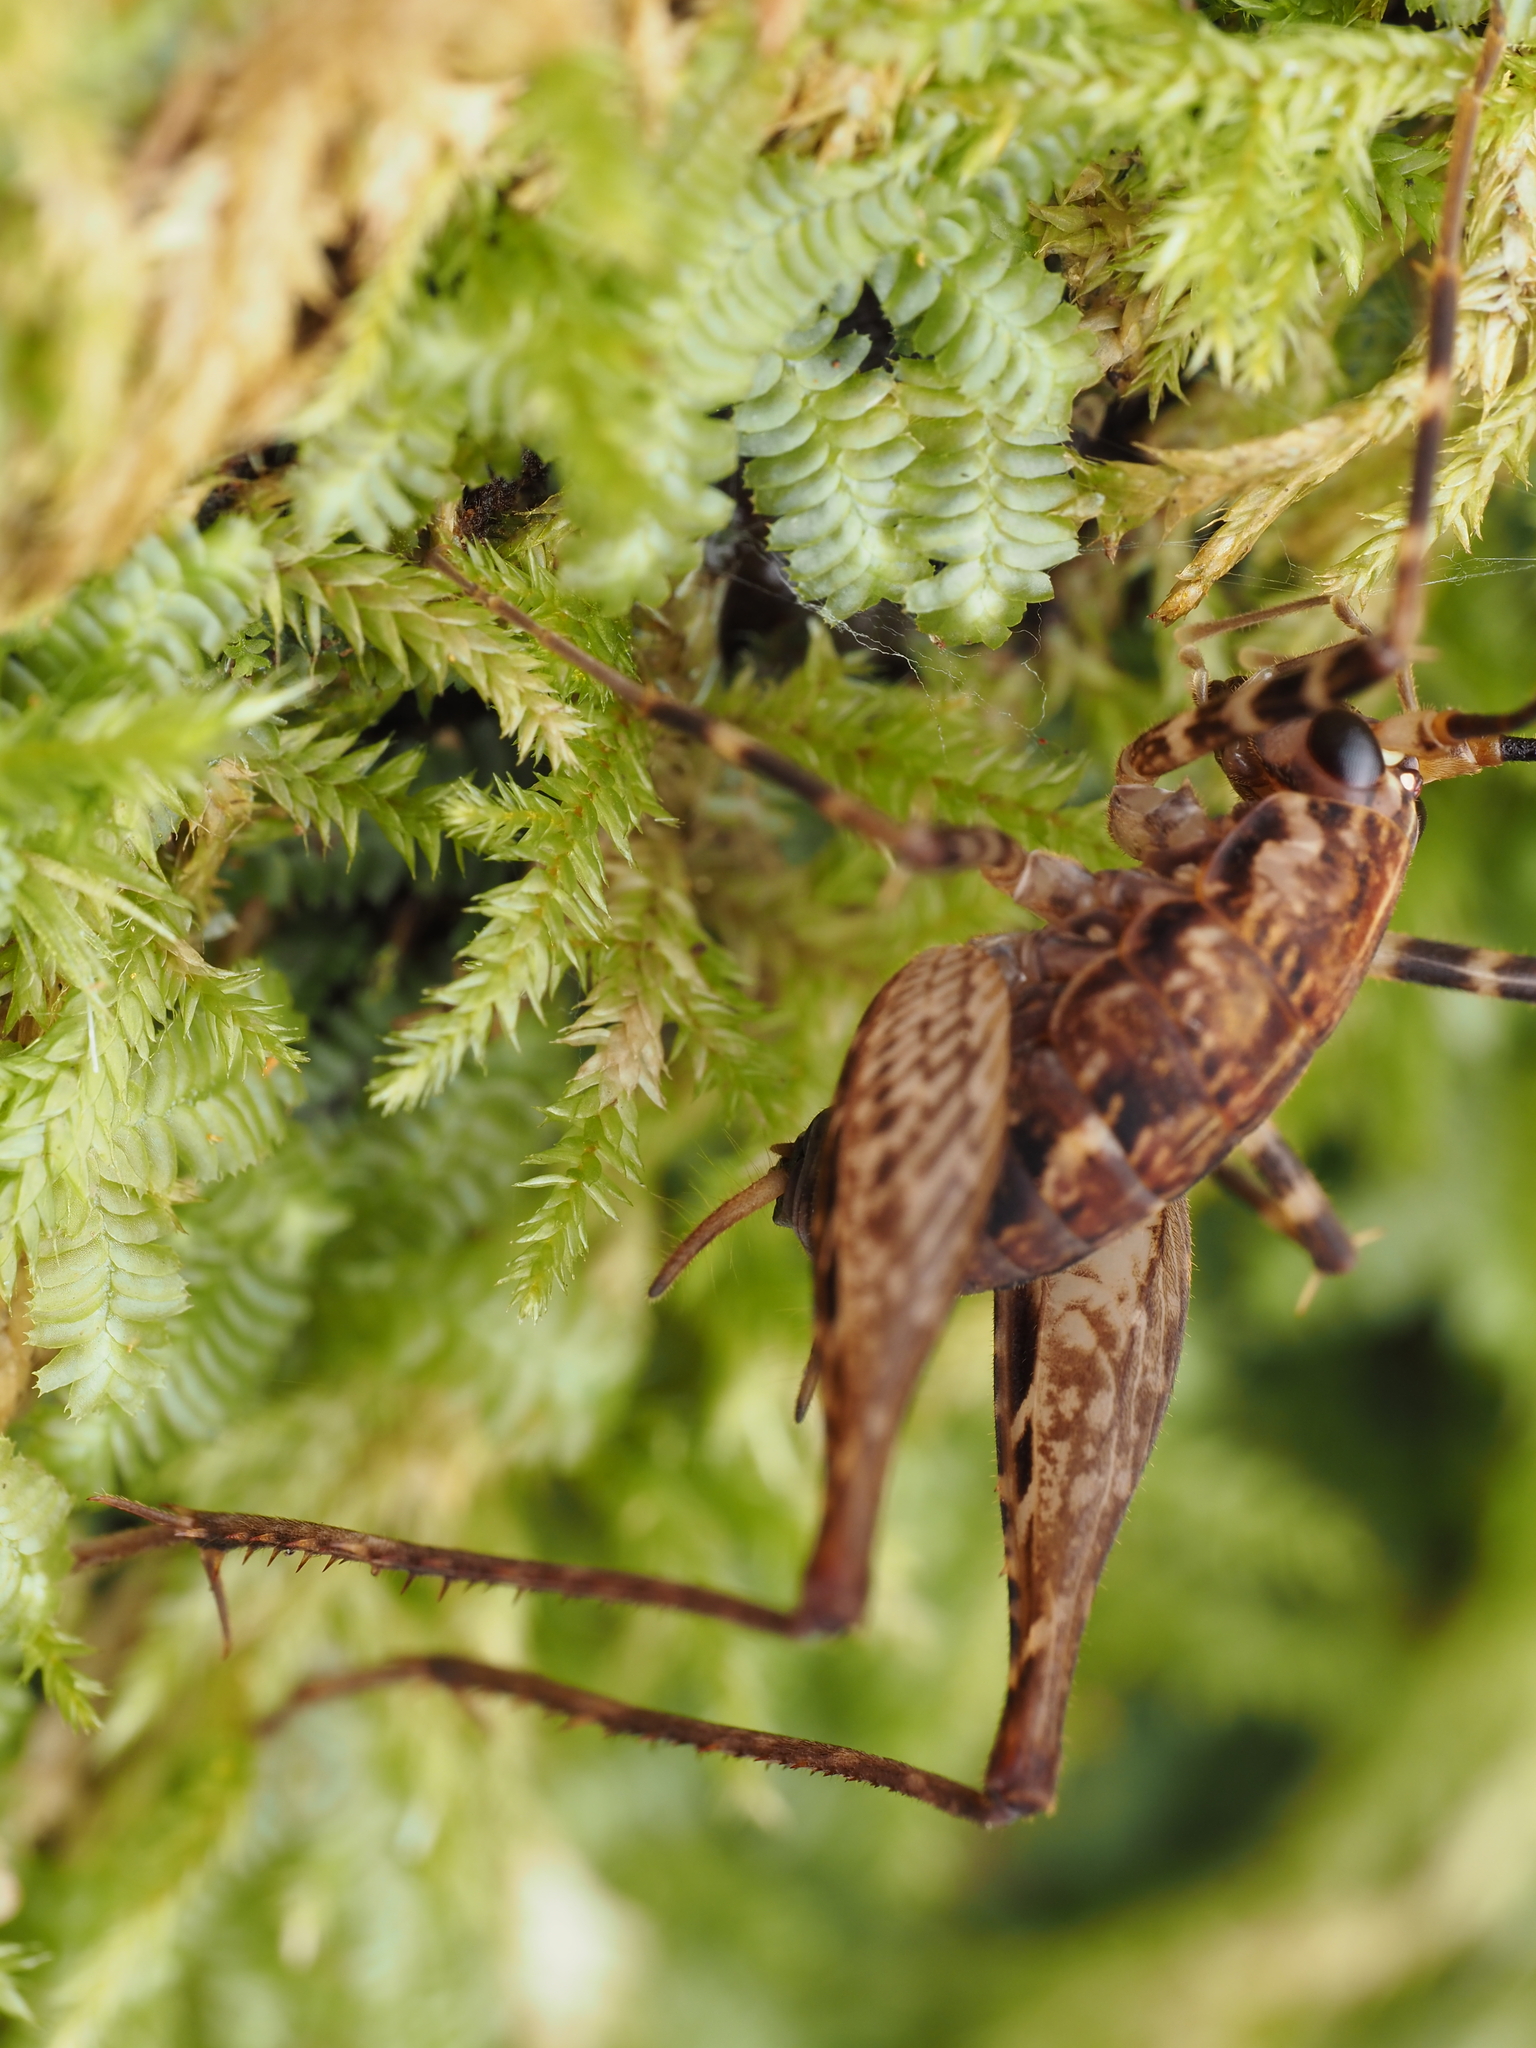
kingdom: Animalia
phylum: Arthropoda
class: Insecta
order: Orthoptera
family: Rhaphidophoridae
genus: Pleioplectron
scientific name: Pleioplectron hudsoni
